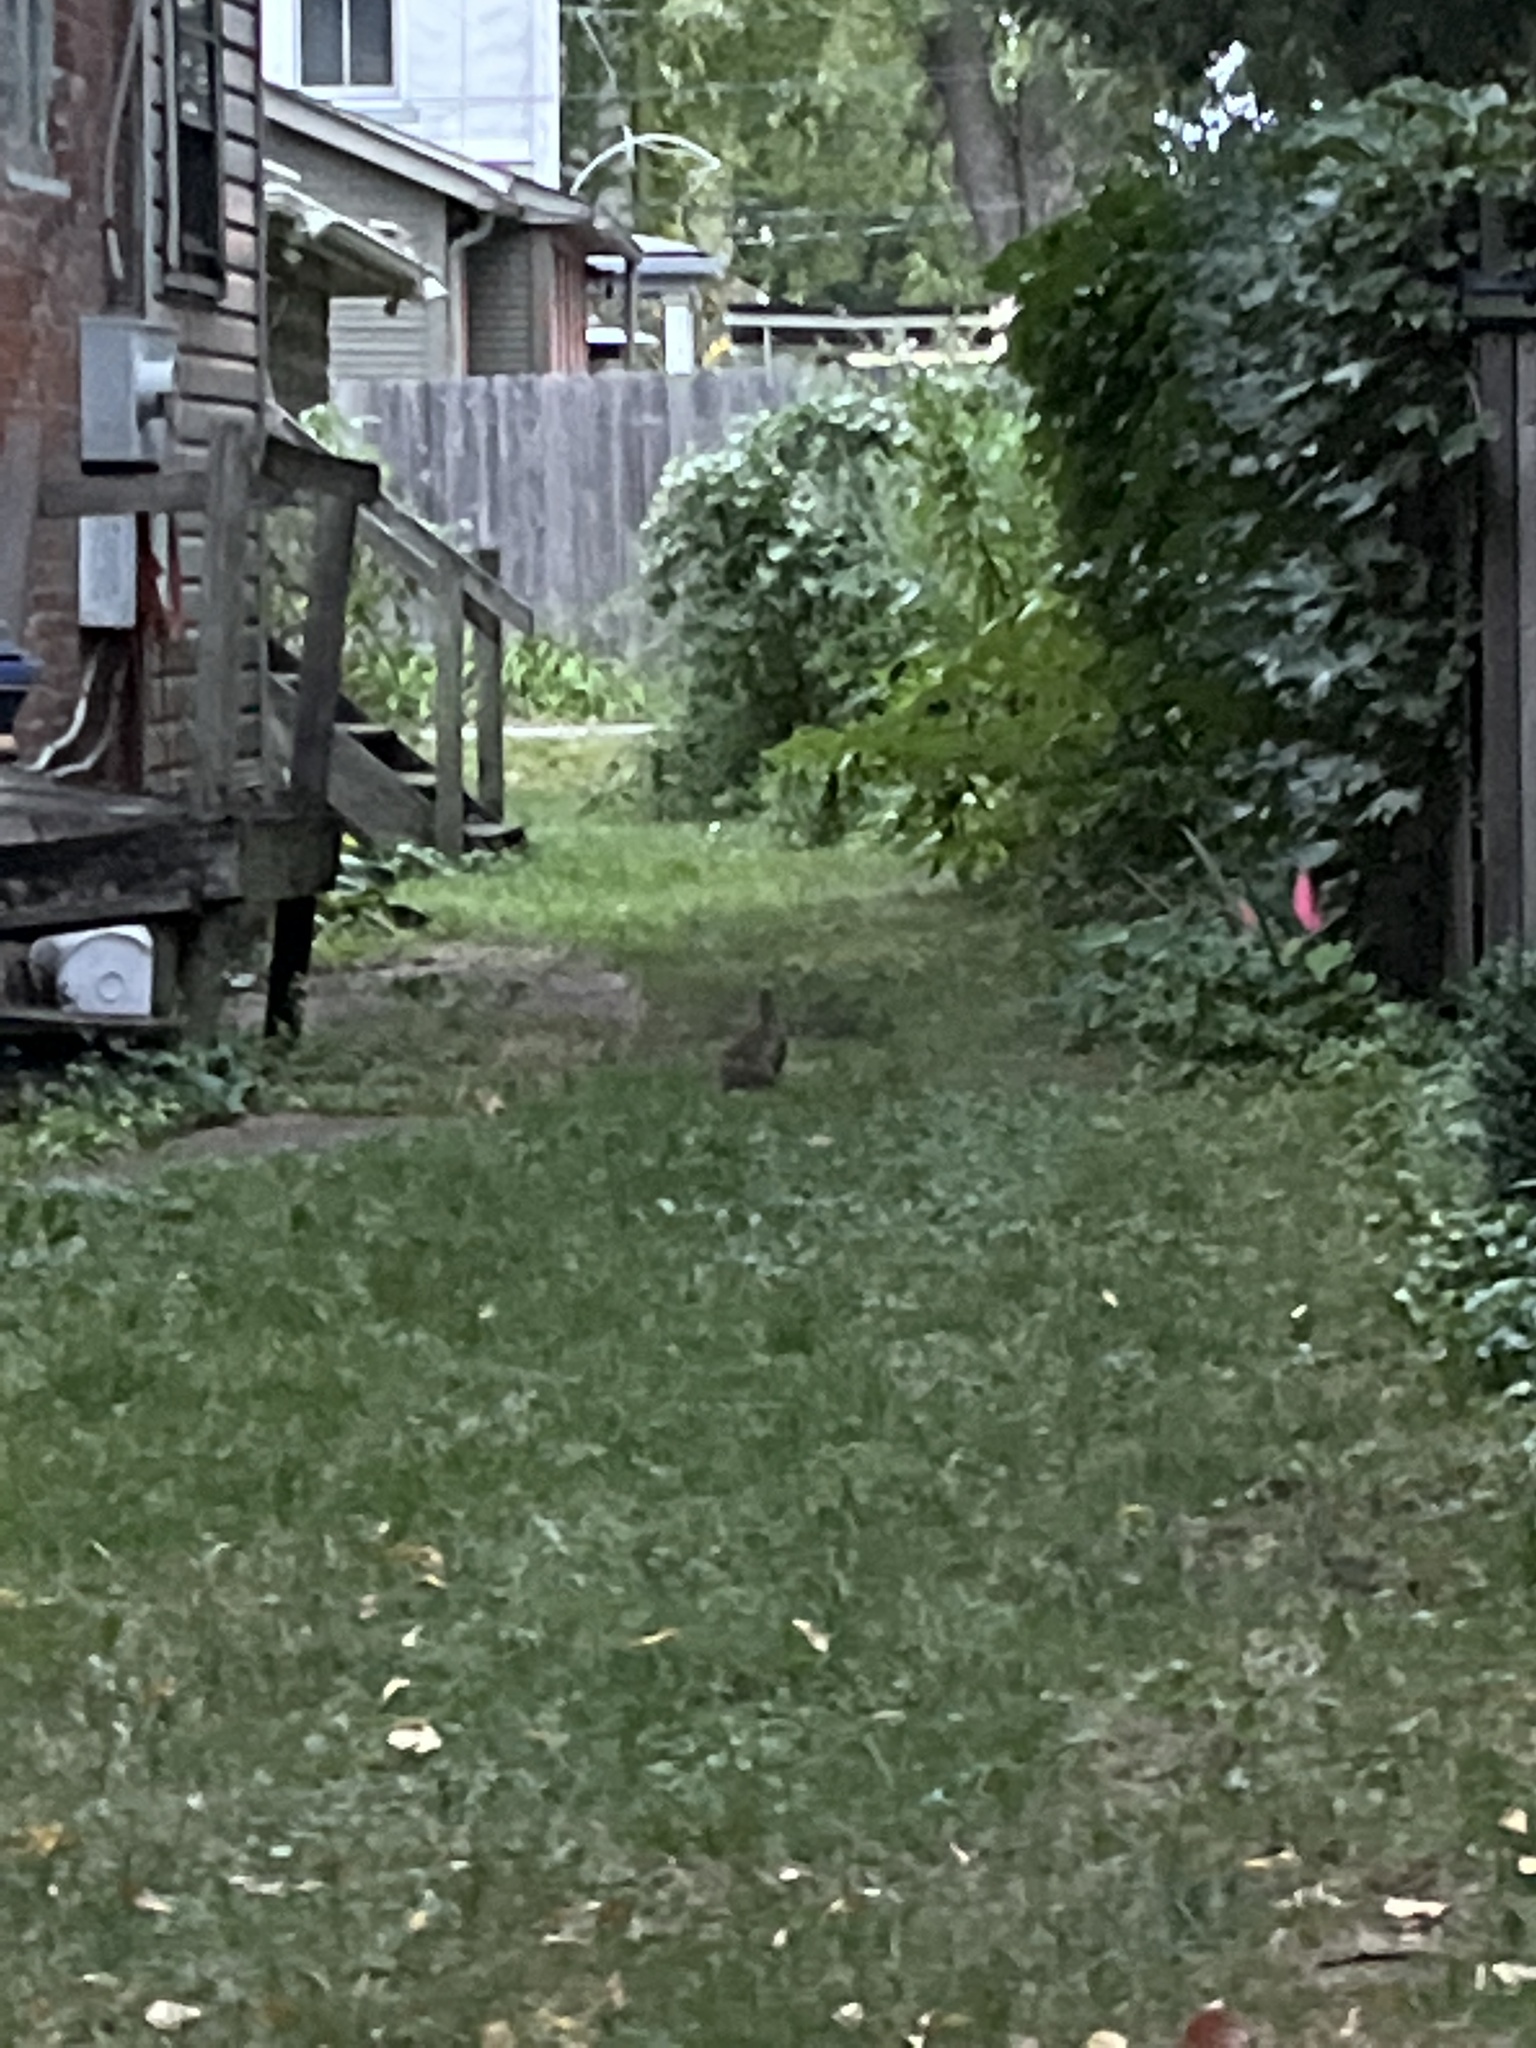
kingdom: Animalia
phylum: Chordata
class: Mammalia
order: Lagomorpha
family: Leporidae
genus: Sylvilagus
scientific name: Sylvilagus floridanus
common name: Eastern cottontail
